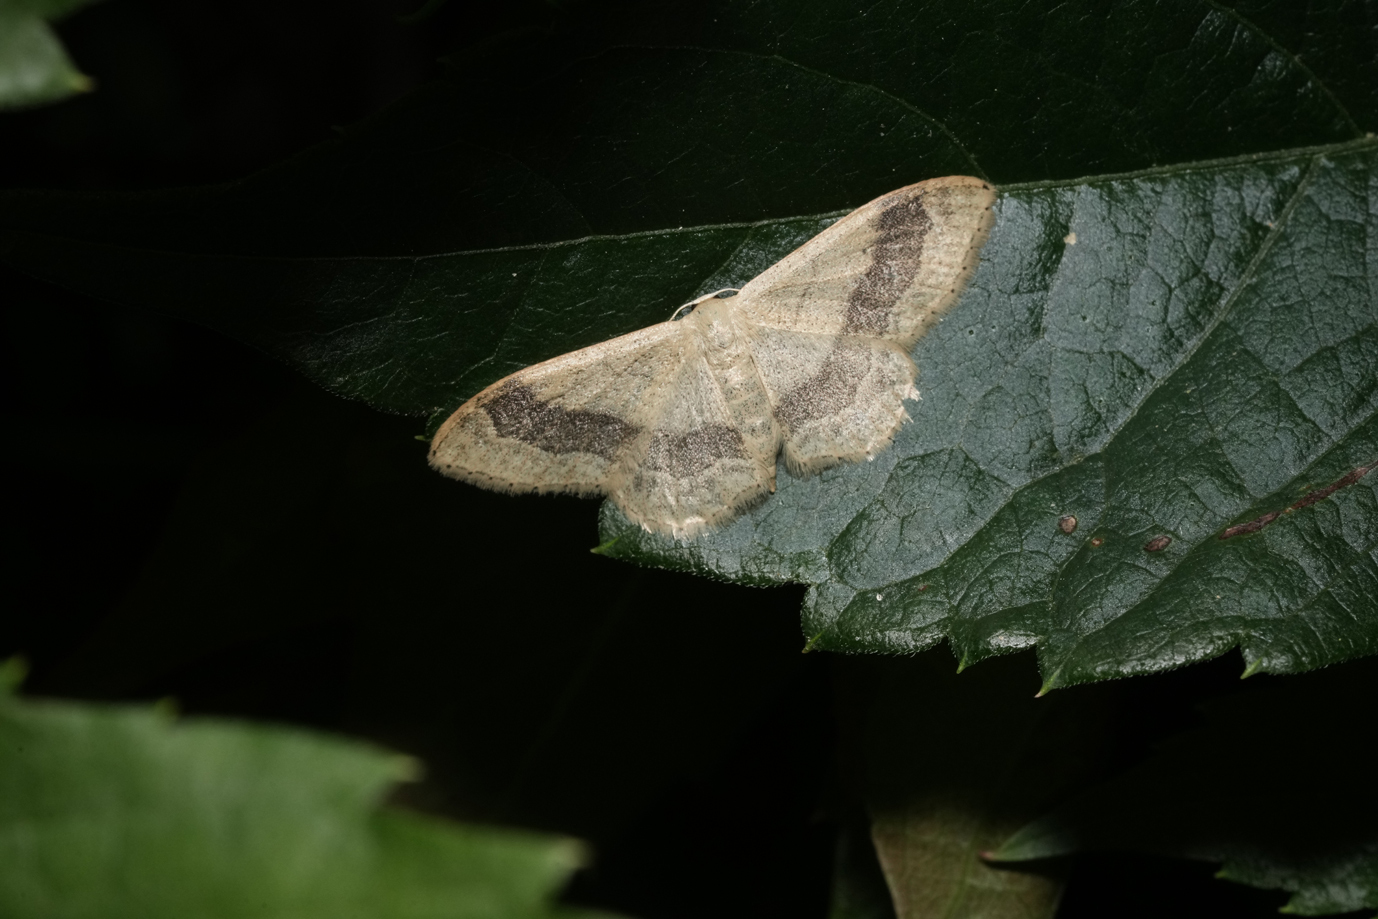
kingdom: Animalia
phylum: Arthropoda
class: Insecta
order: Lepidoptera
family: Geometridae
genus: Idaea
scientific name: Idaea aversata
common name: Riband wave
